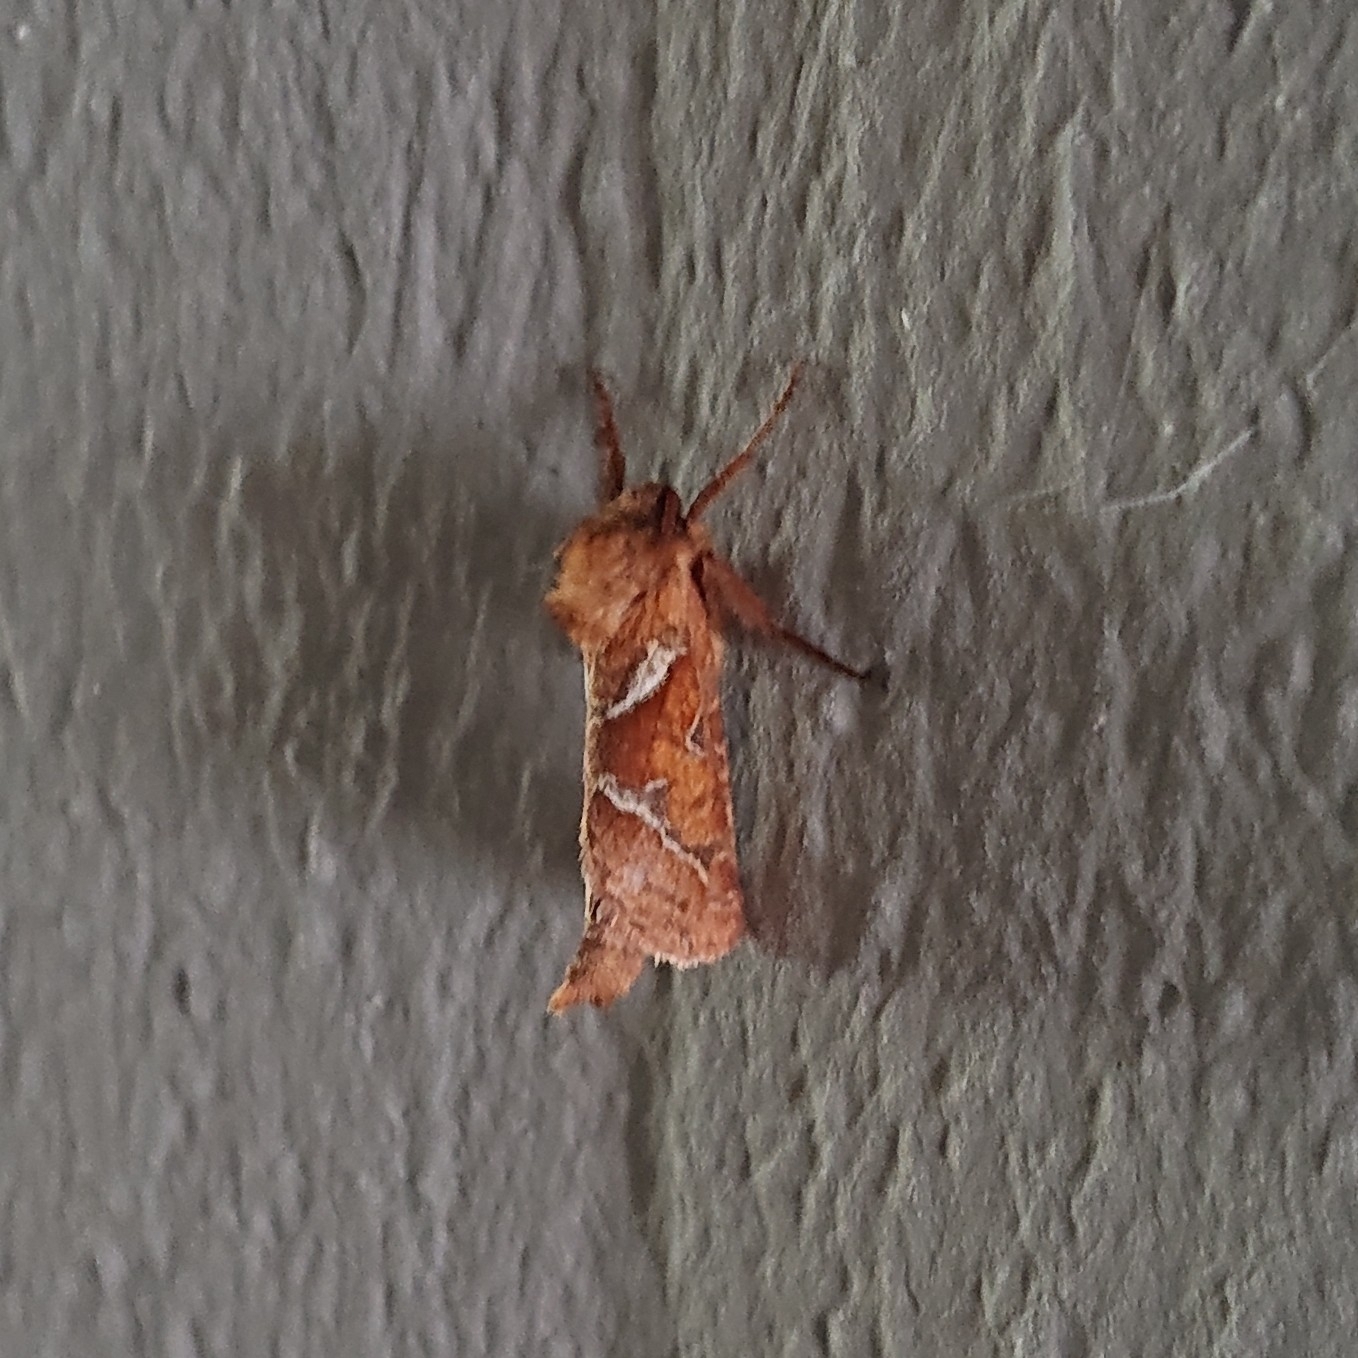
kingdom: Animalia
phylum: Arthropoda
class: Insecta
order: Lepidoptera
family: Hepialidae
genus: Triodia
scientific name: Triodia sylvina
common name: Orange swift
